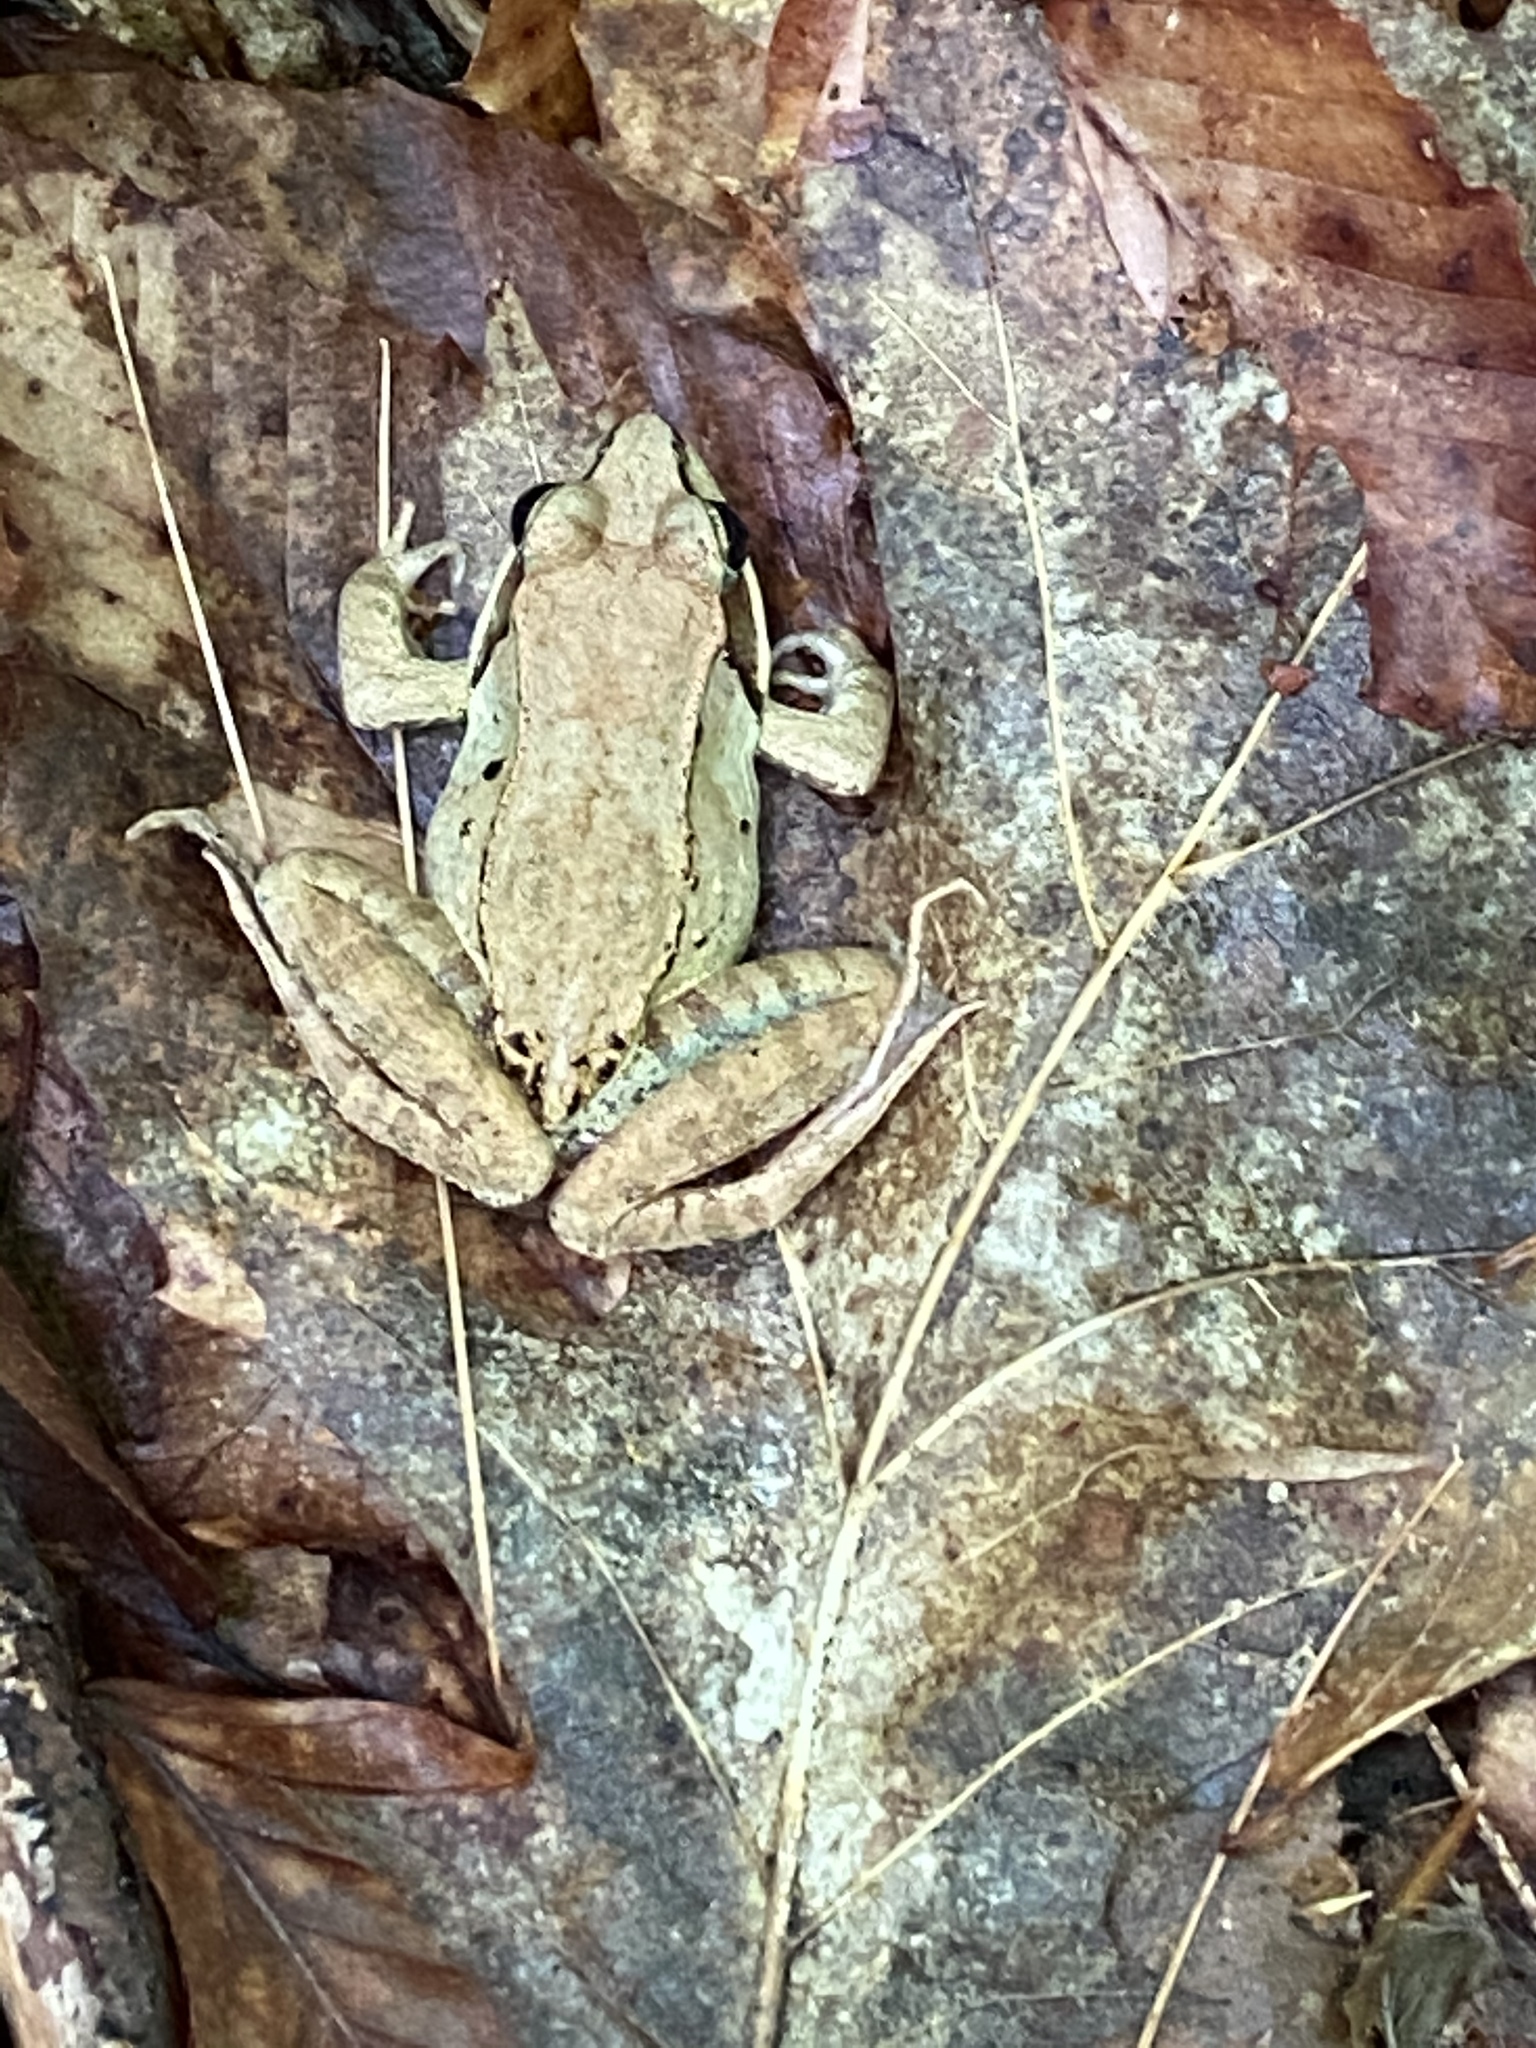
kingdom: Animalia
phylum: Chordata
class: Amphibia
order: Anura
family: Ranidae
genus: Lithobates
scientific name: Lithobates sylvaticus
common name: Wood frog
